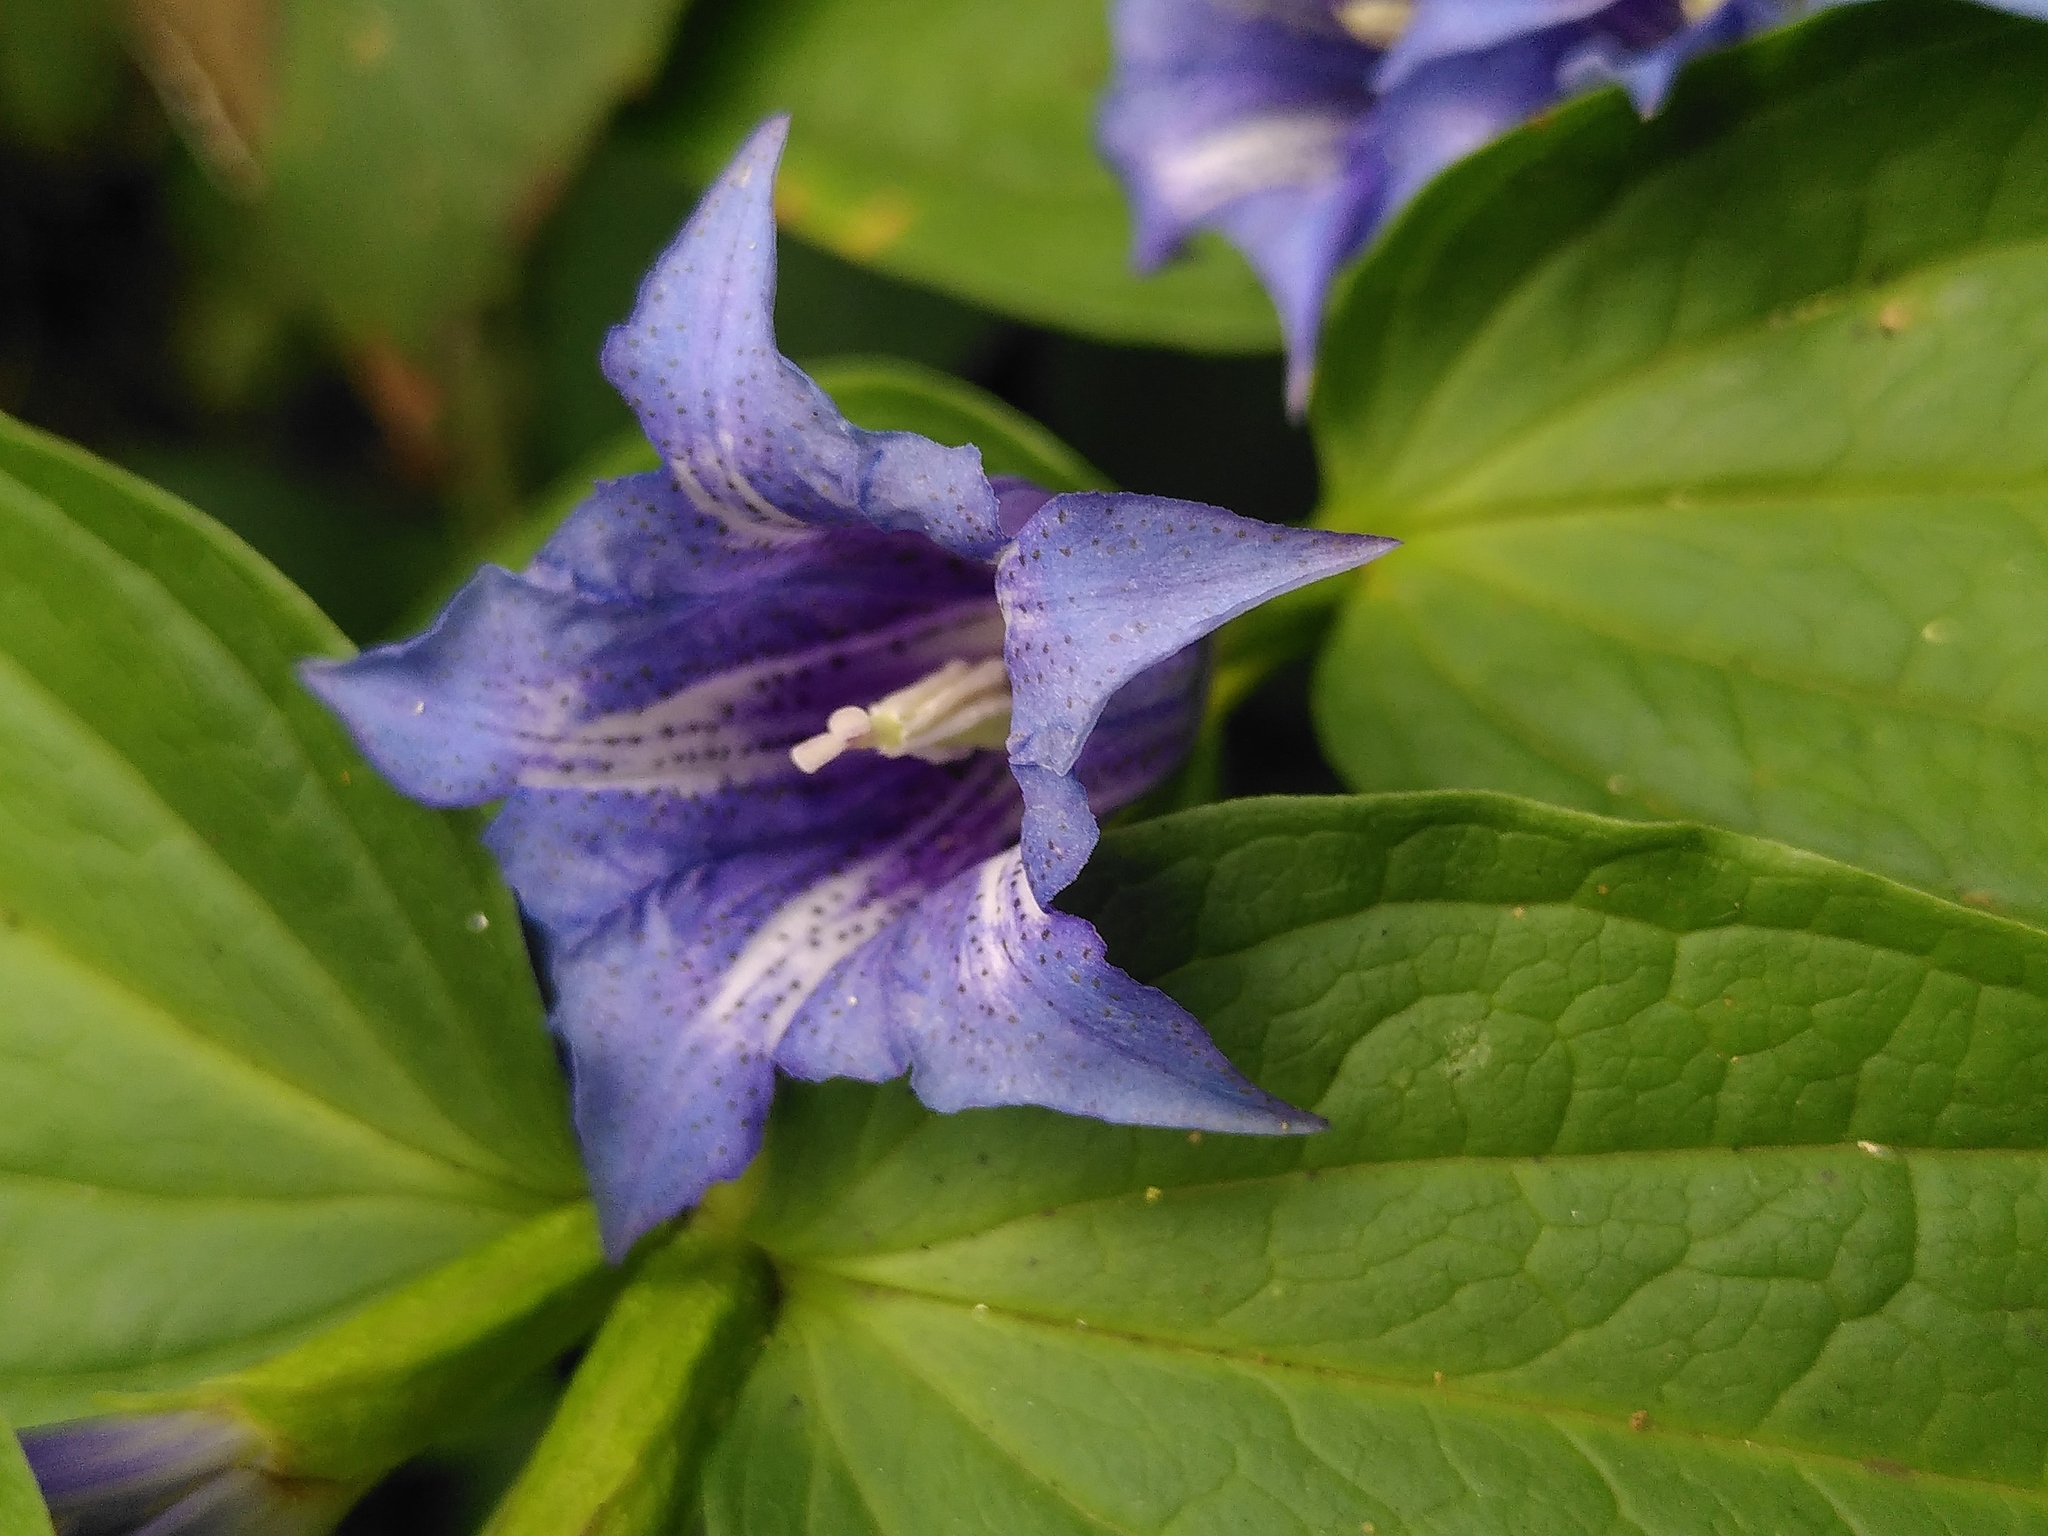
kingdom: Plantae
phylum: Tracheophyta
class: Magnoliopsida
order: Gentianales
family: Gentianaceae
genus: Gentiana
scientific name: Gentiana asclepiadea
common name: Willow gentian
